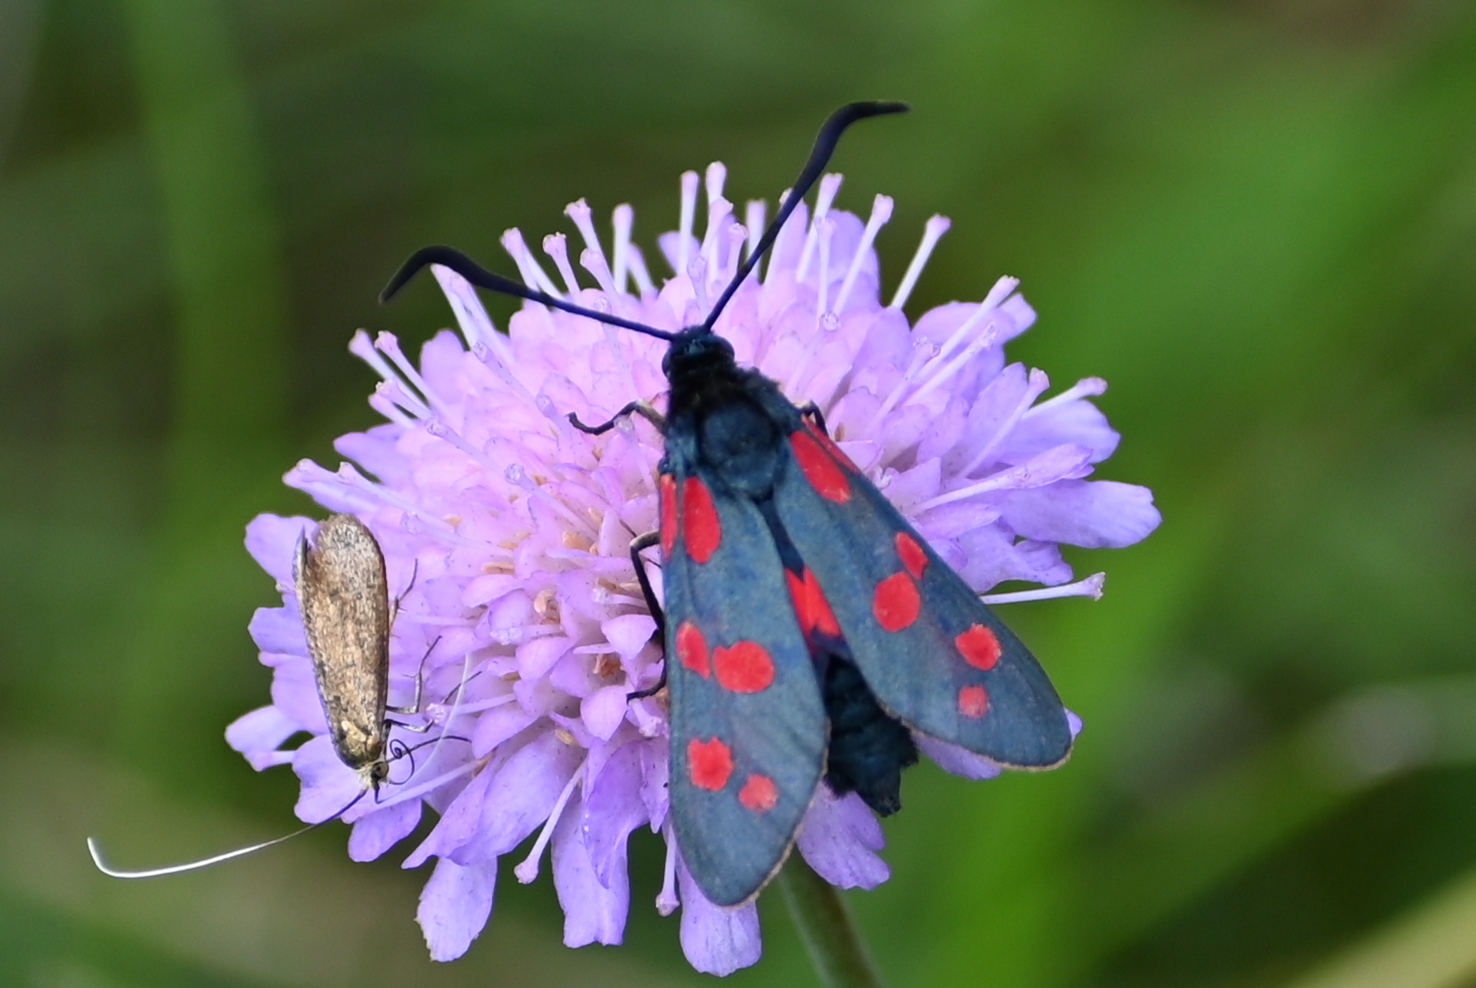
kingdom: Animalia
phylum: Arthropoda
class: Insecta
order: Lepidoptera
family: Zygaenidae
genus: Zygaena
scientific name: Zygaena filipendulae
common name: Six-spot burnet
